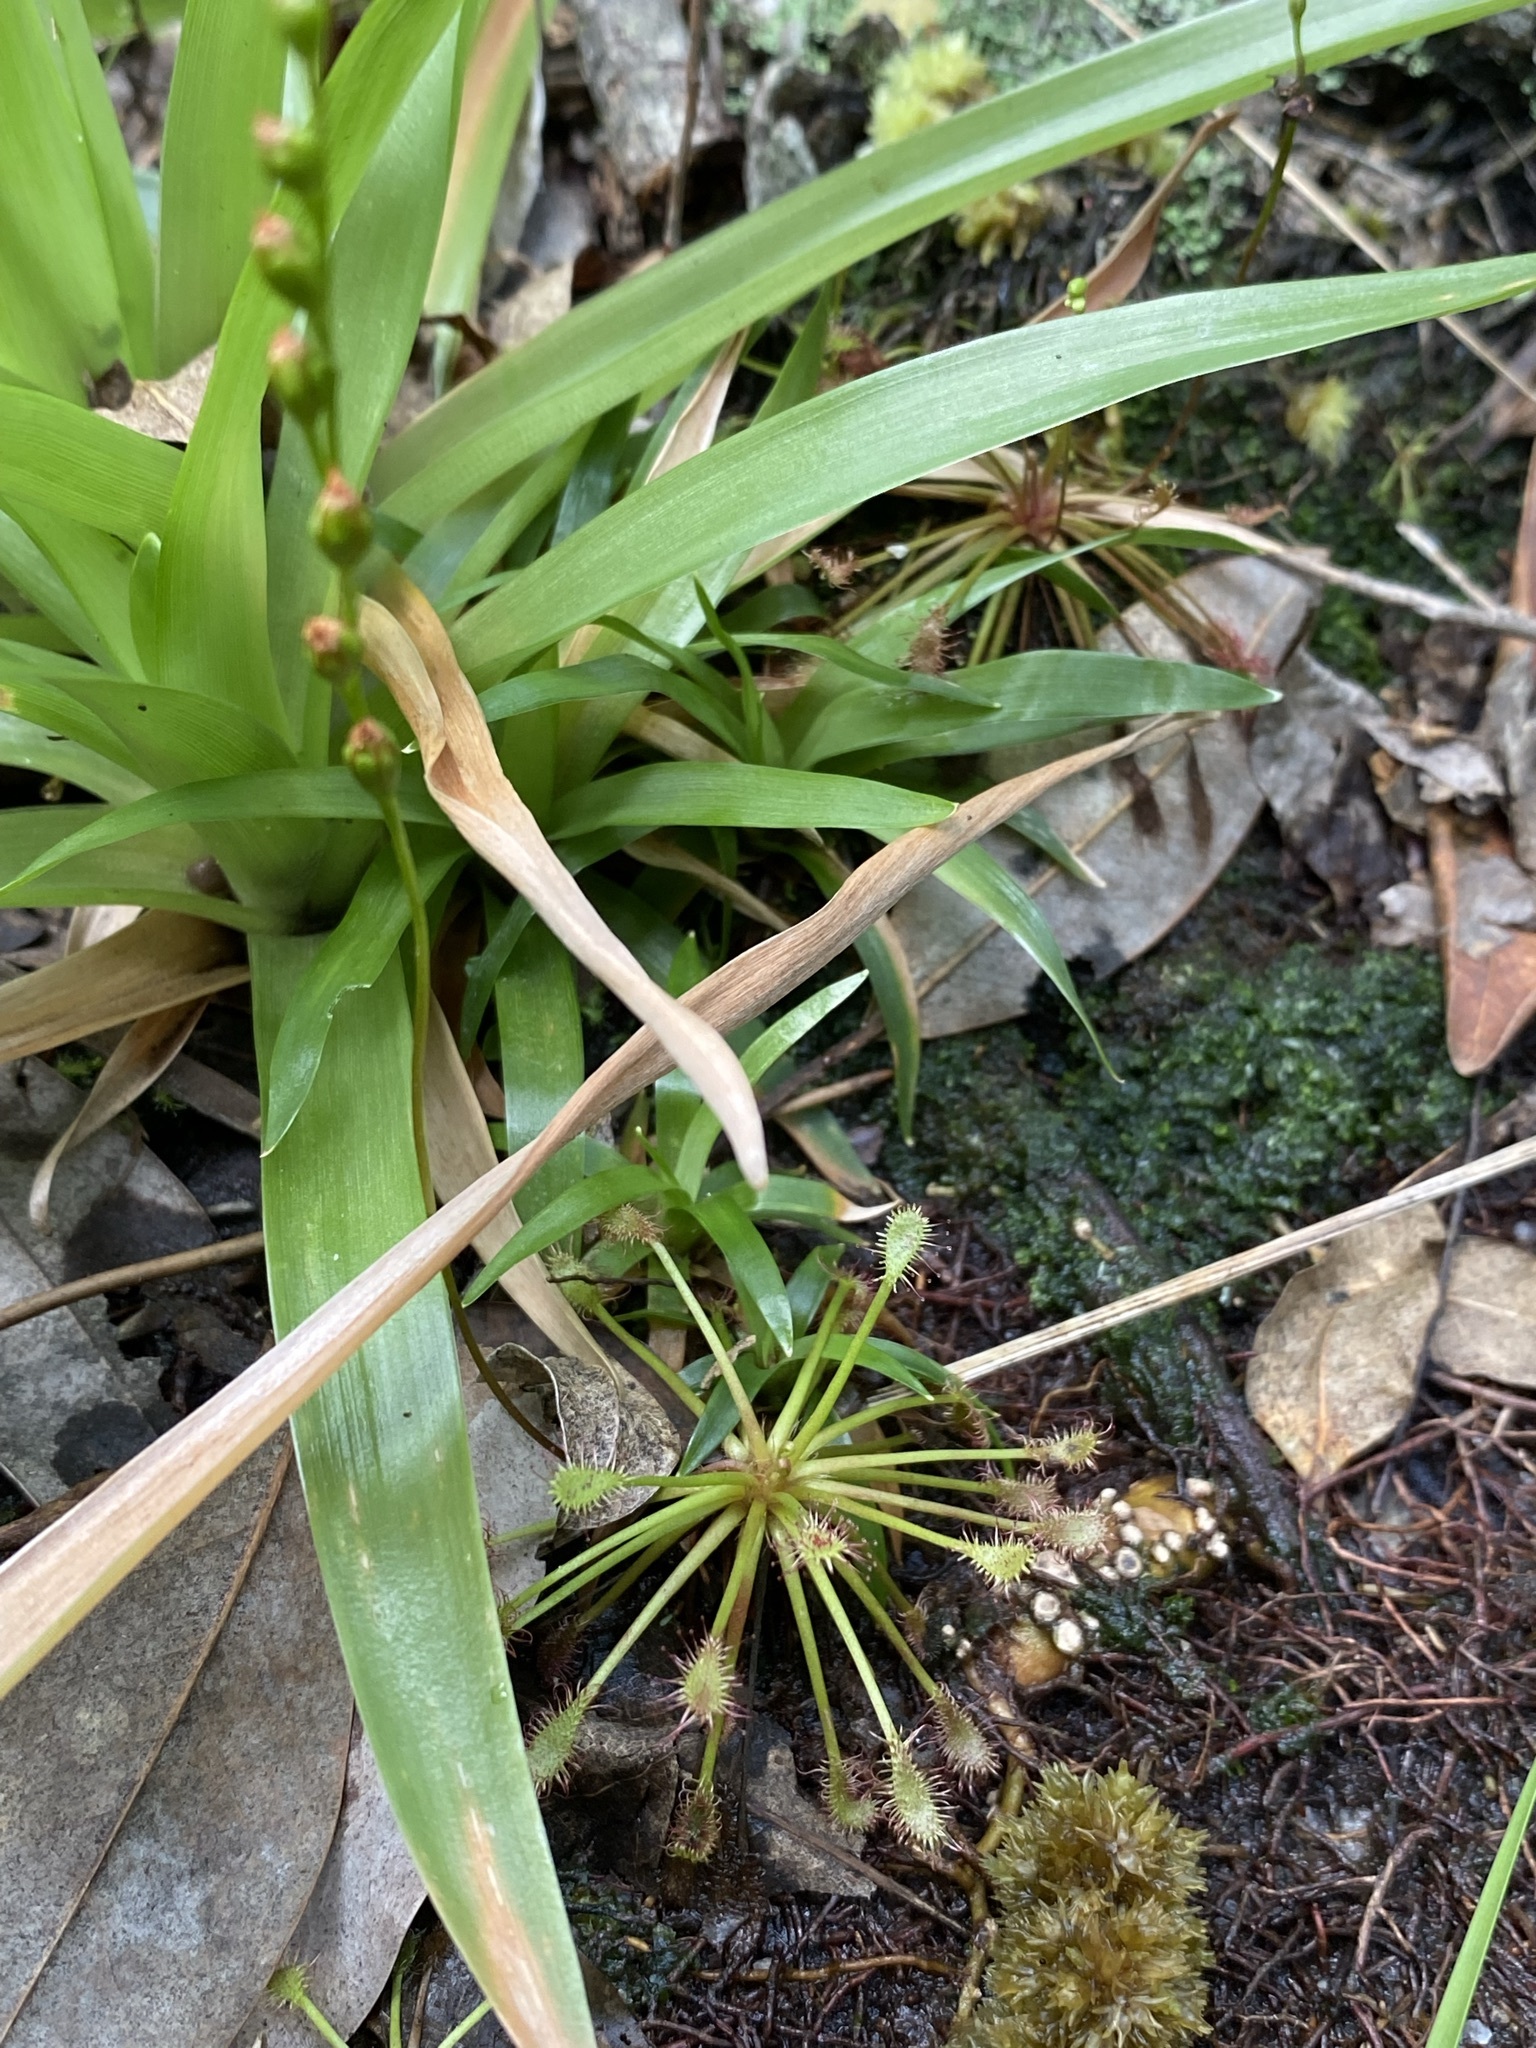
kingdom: Plantae
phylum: Tracheophyta
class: Magnoliopsida
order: Caryophyllales
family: Droseraceae
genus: Drosera
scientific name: Drosera intermedia
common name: Oblong-leaved sundew
